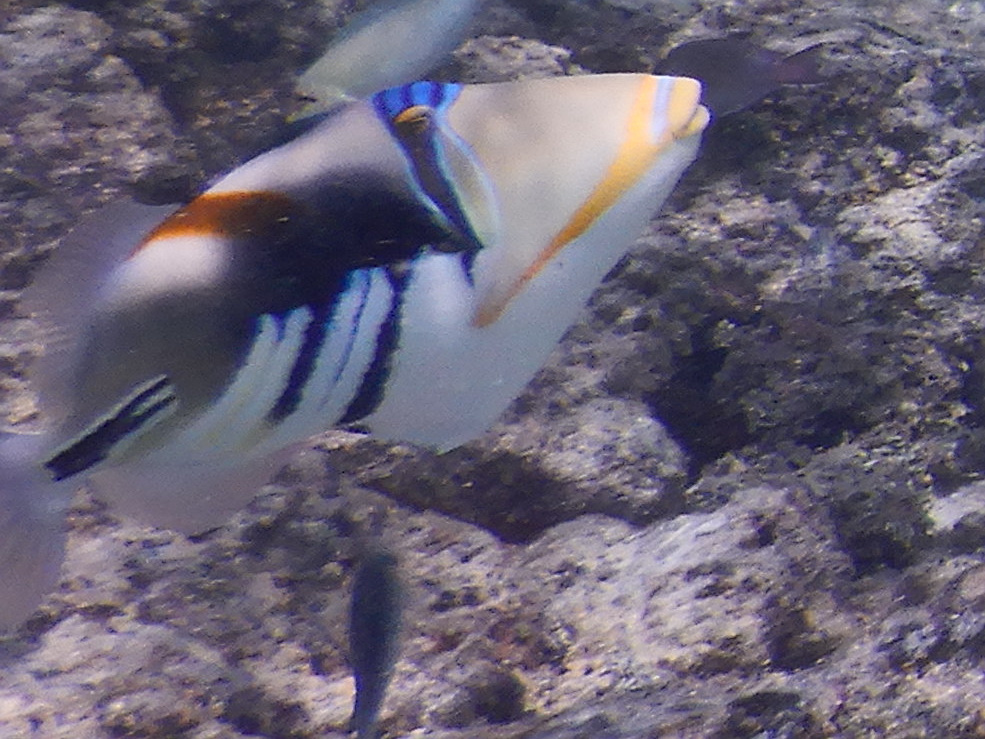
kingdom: Animalia
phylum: Chordata
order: Tetraodontiformes
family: Balistidae
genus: Rhinecanthus
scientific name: Rhinecanthus aculeatus
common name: White-banded triggerfish
